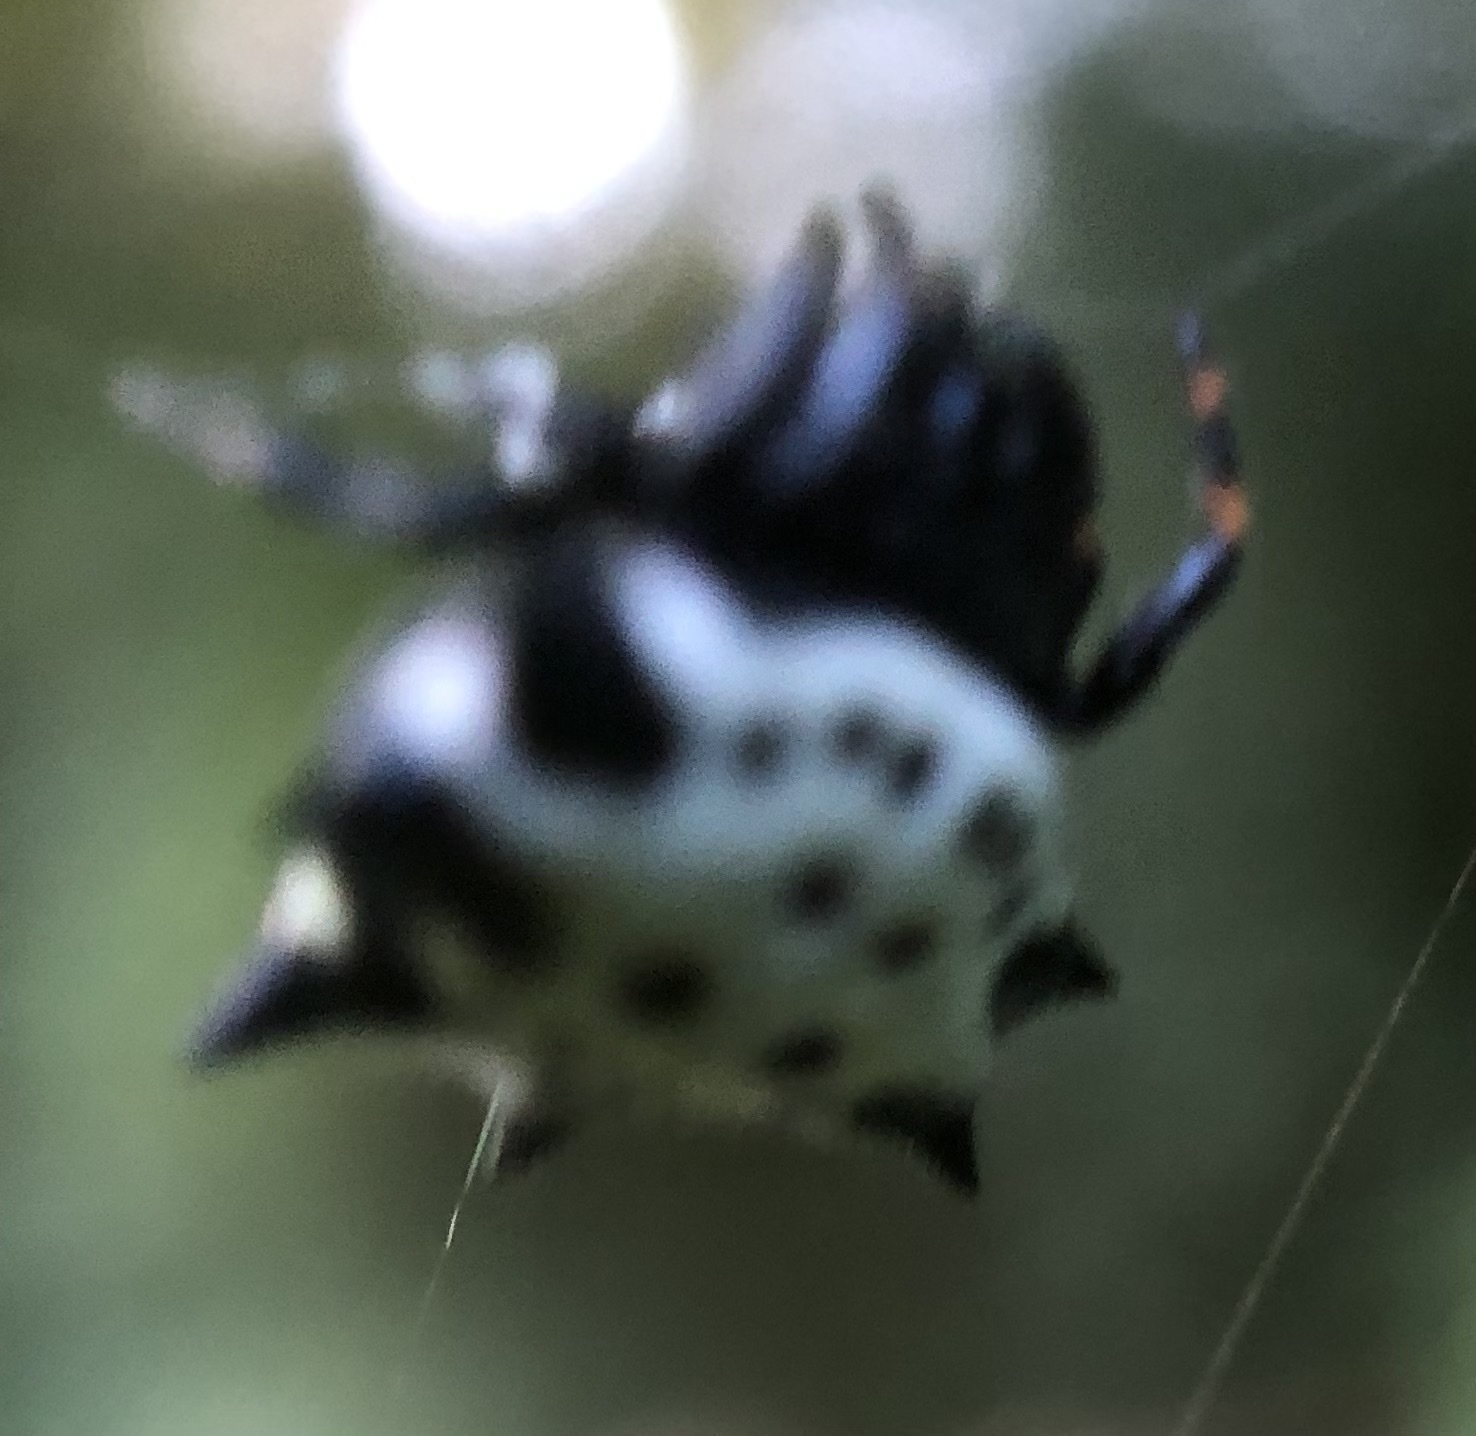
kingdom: Animalia
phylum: Arthropoda
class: Arachnida
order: Araneae
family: Araneidae
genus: Gasteracantha
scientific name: Gasteracantha cancriformis
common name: Orb weavers
